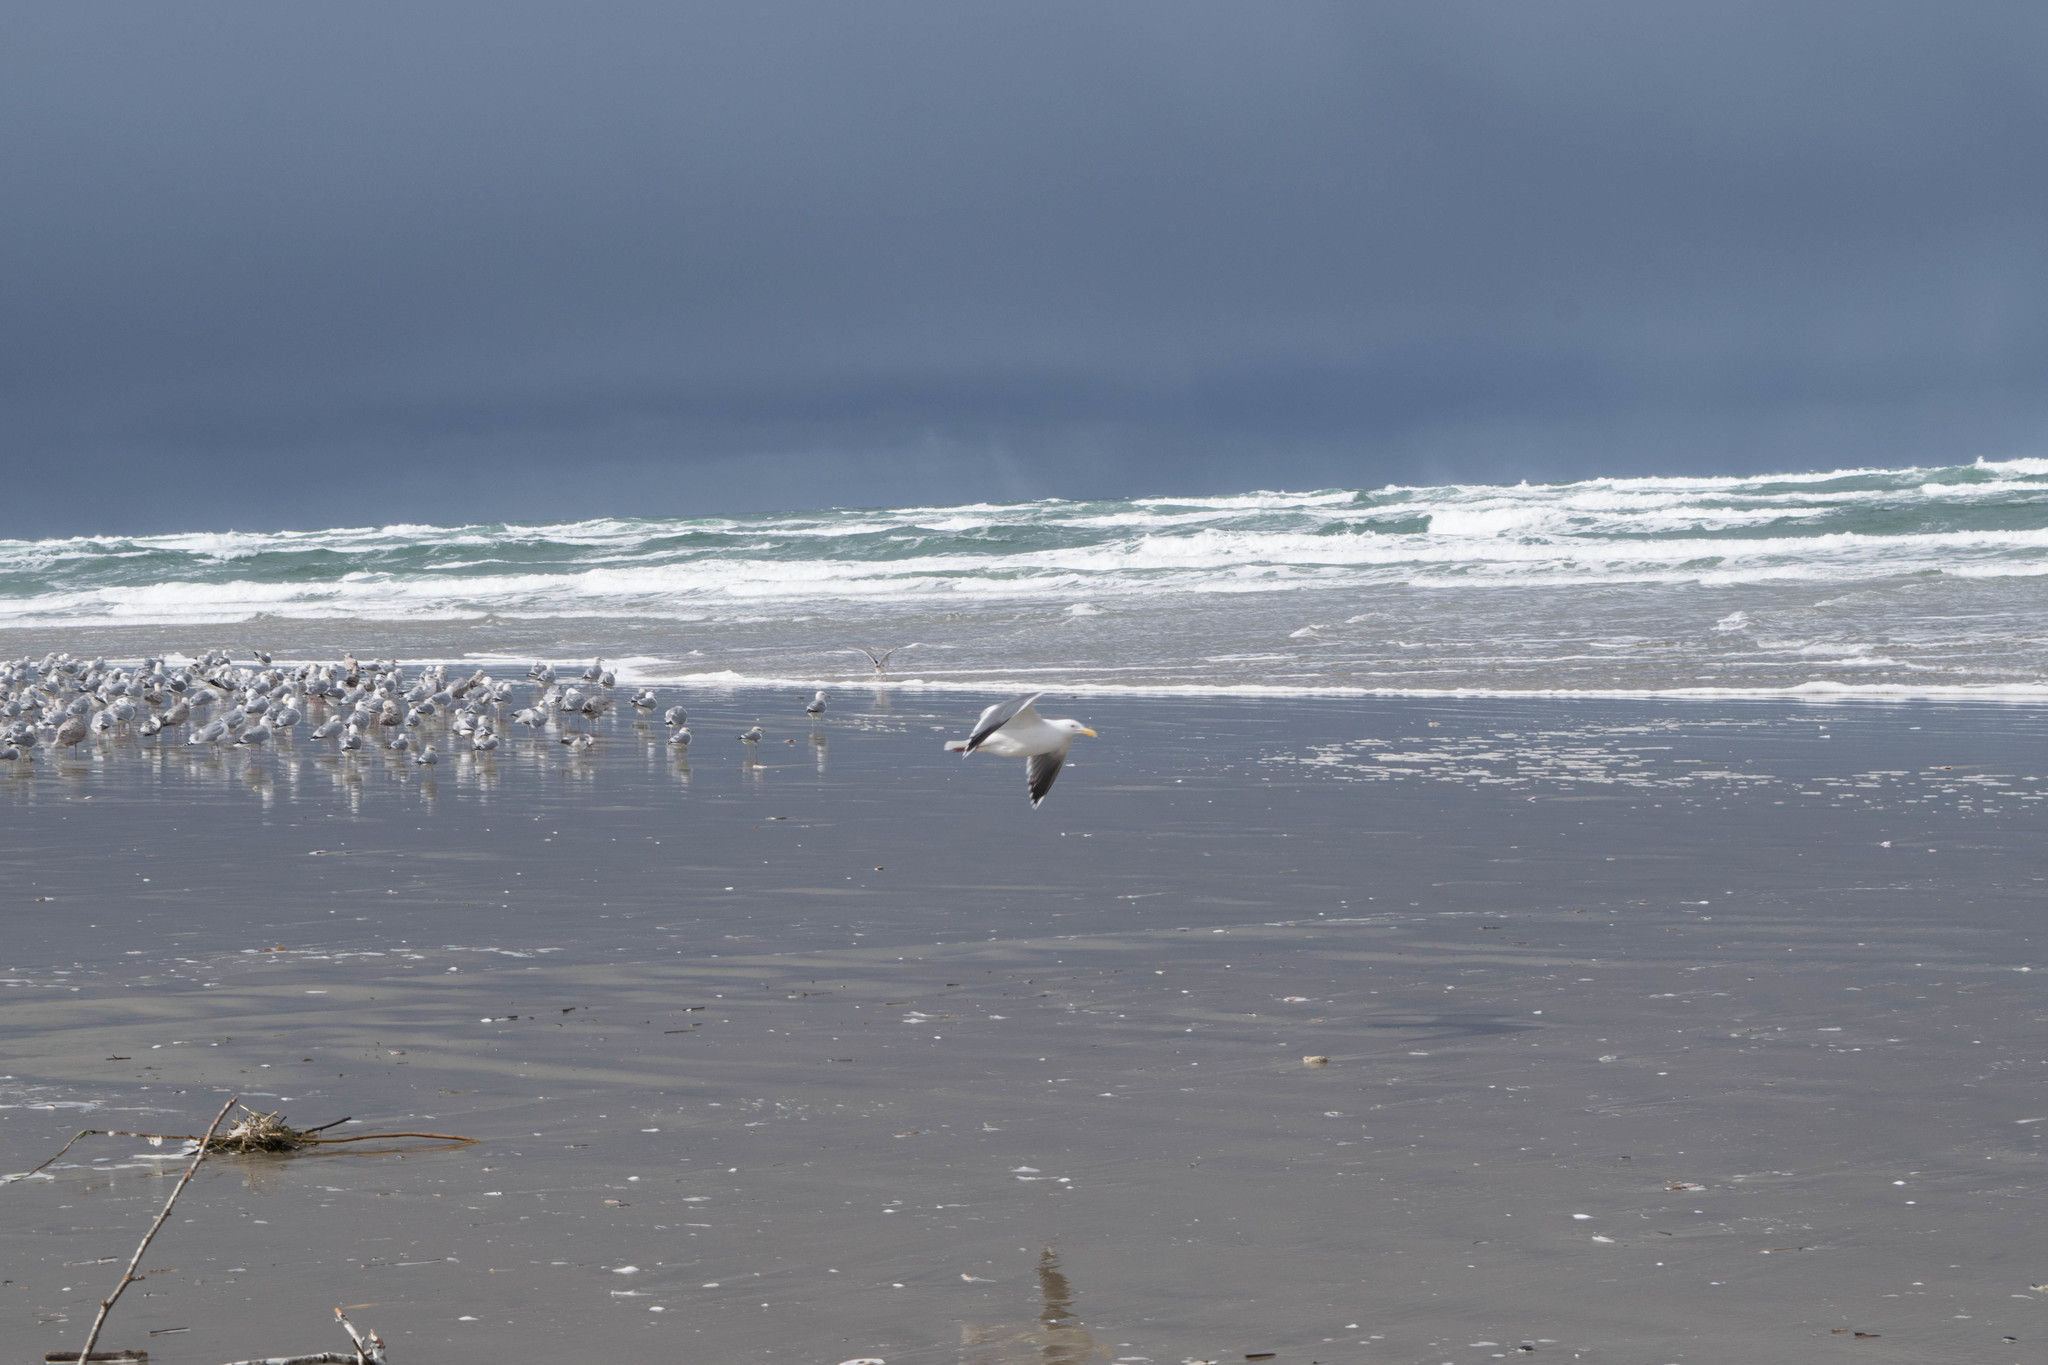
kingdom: Animalia
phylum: Chordata
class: Aves
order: Charadriiformes
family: Laridae
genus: Larus
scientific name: Larus occidentalis
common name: Western gull
